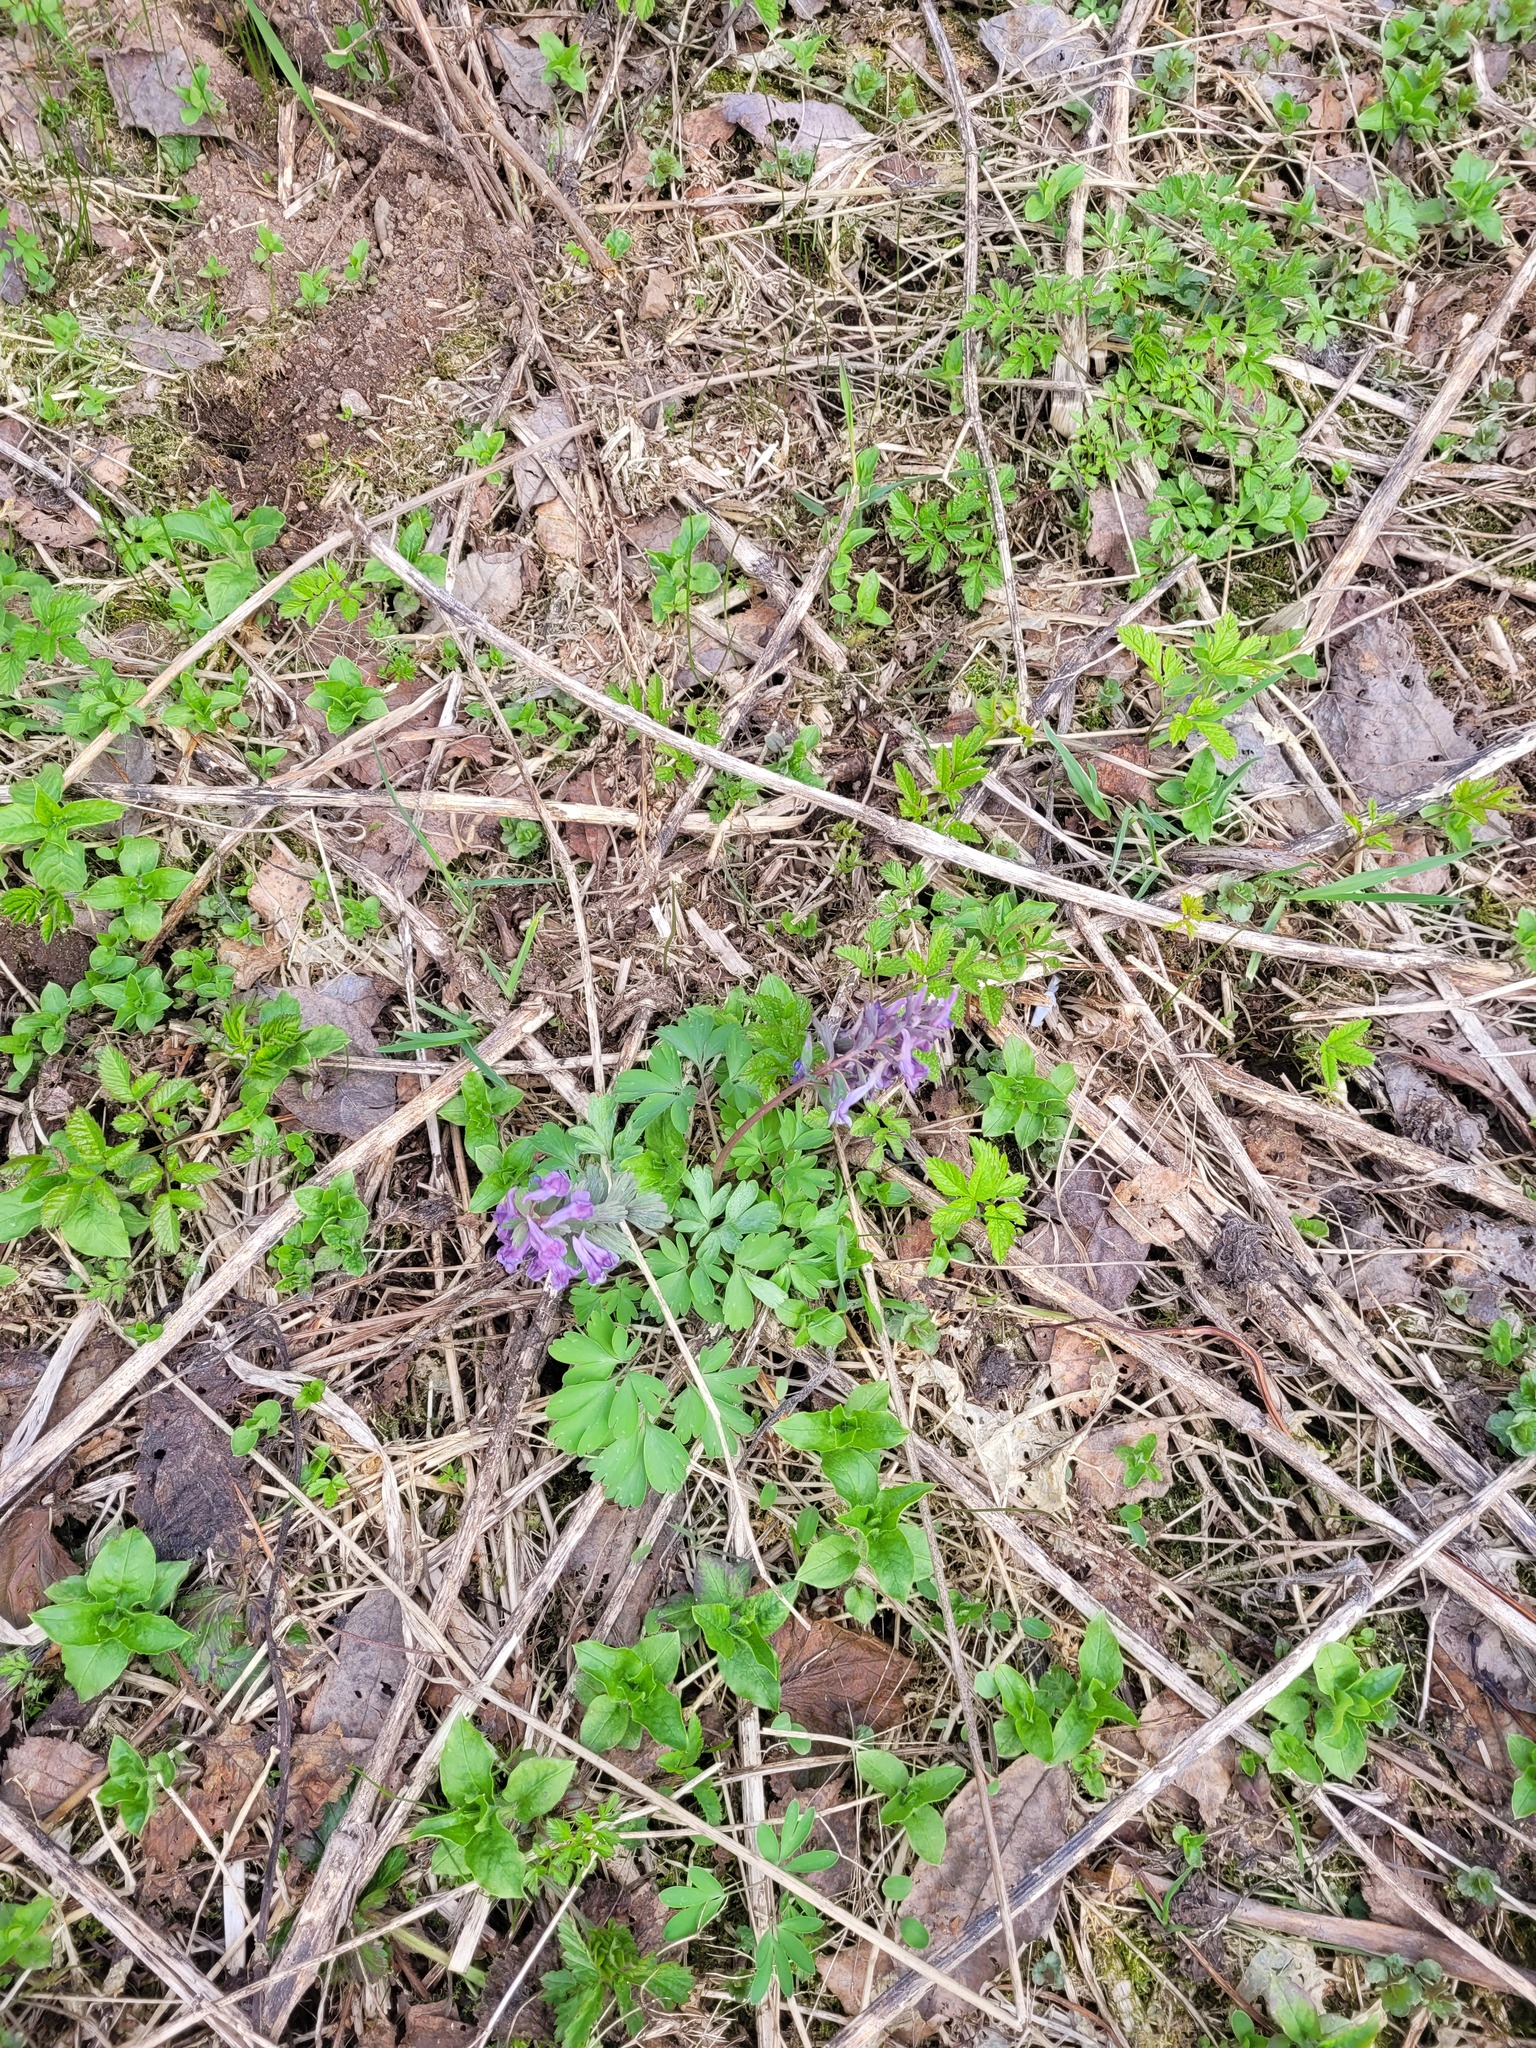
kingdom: Plantae
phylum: Tracheophyta
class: Magnoliopsida
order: Ranunculales
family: Papaveraceae
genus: Corydalis
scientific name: Corydalis solida
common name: Bird-in-a-bush
